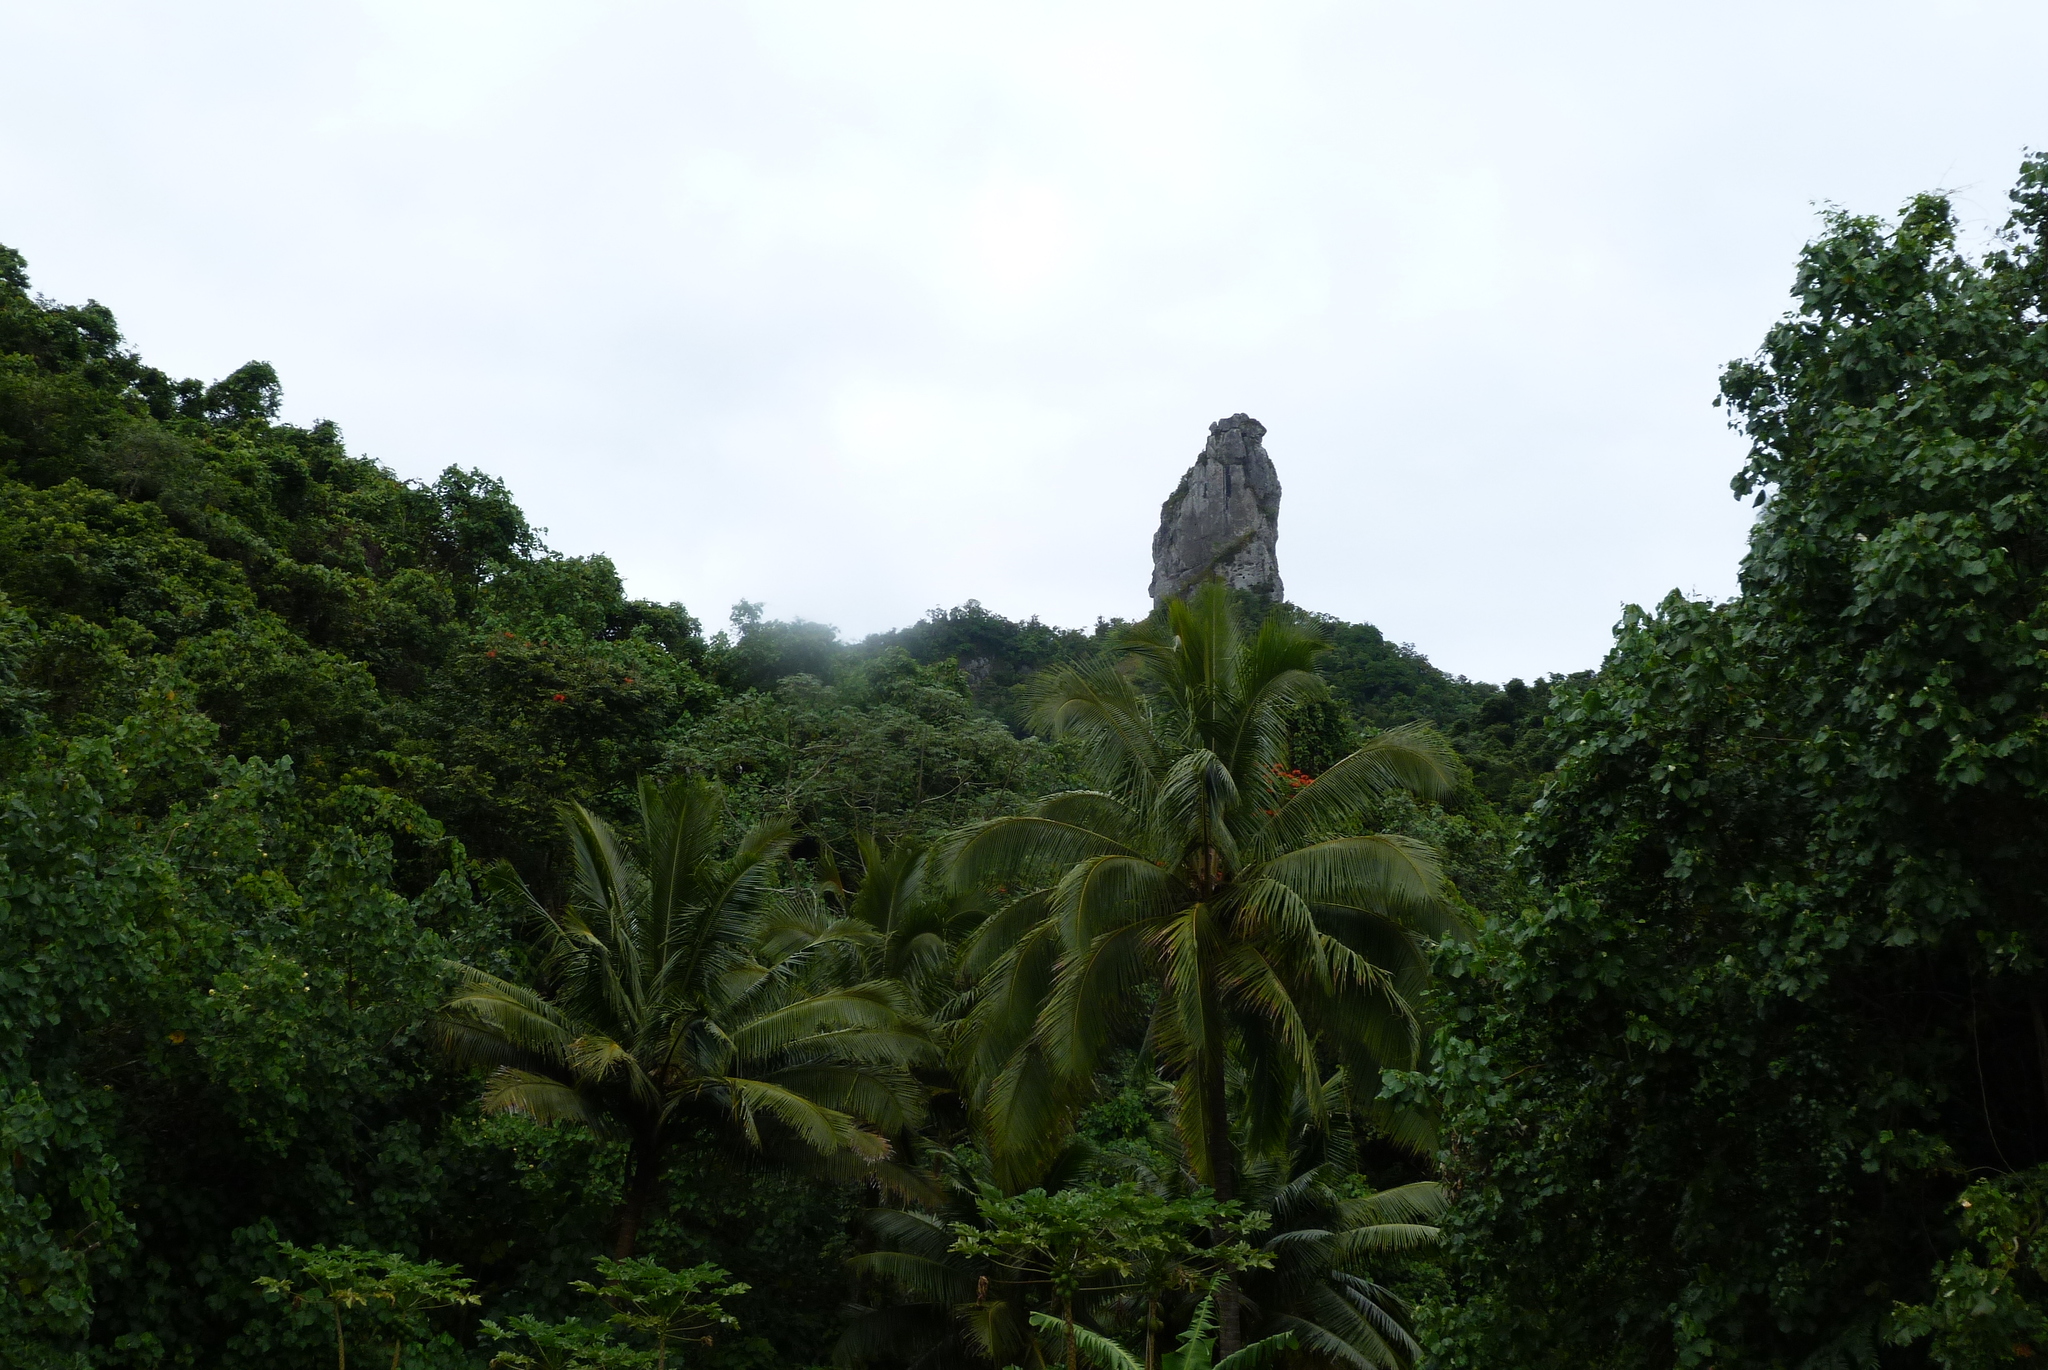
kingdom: Plantae
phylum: Tracheophyta
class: Liliopsida
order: Arecales
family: Arecaceae
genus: Cocos
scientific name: Cocos nucifera
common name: Coconut palm
